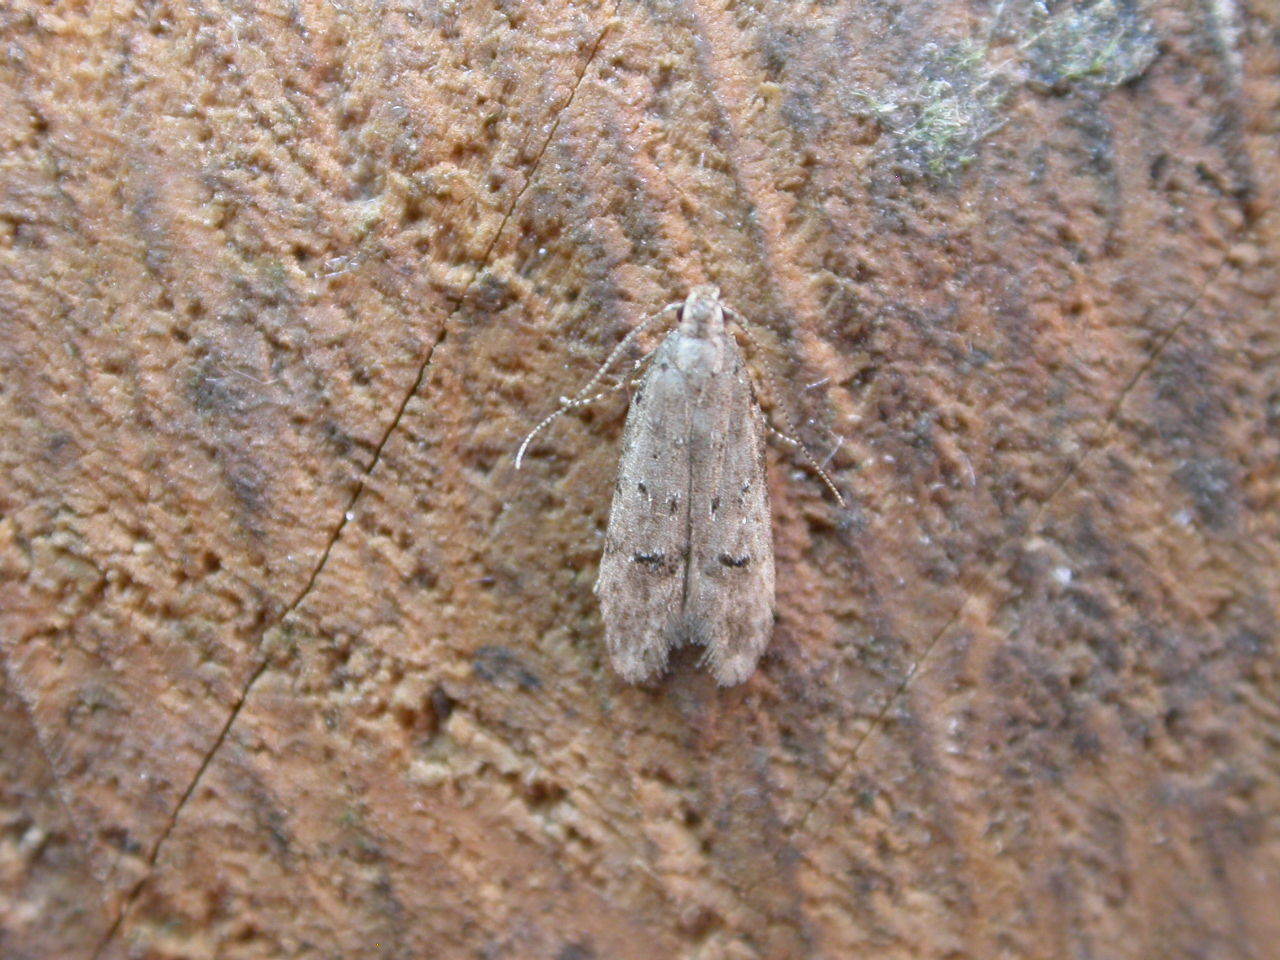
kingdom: Animalia
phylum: Arthropoda
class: Insecta
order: Lepidoptera
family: Gelechiidae
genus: Teleiodes
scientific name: Teleiodes vulgella
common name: Common groundling
